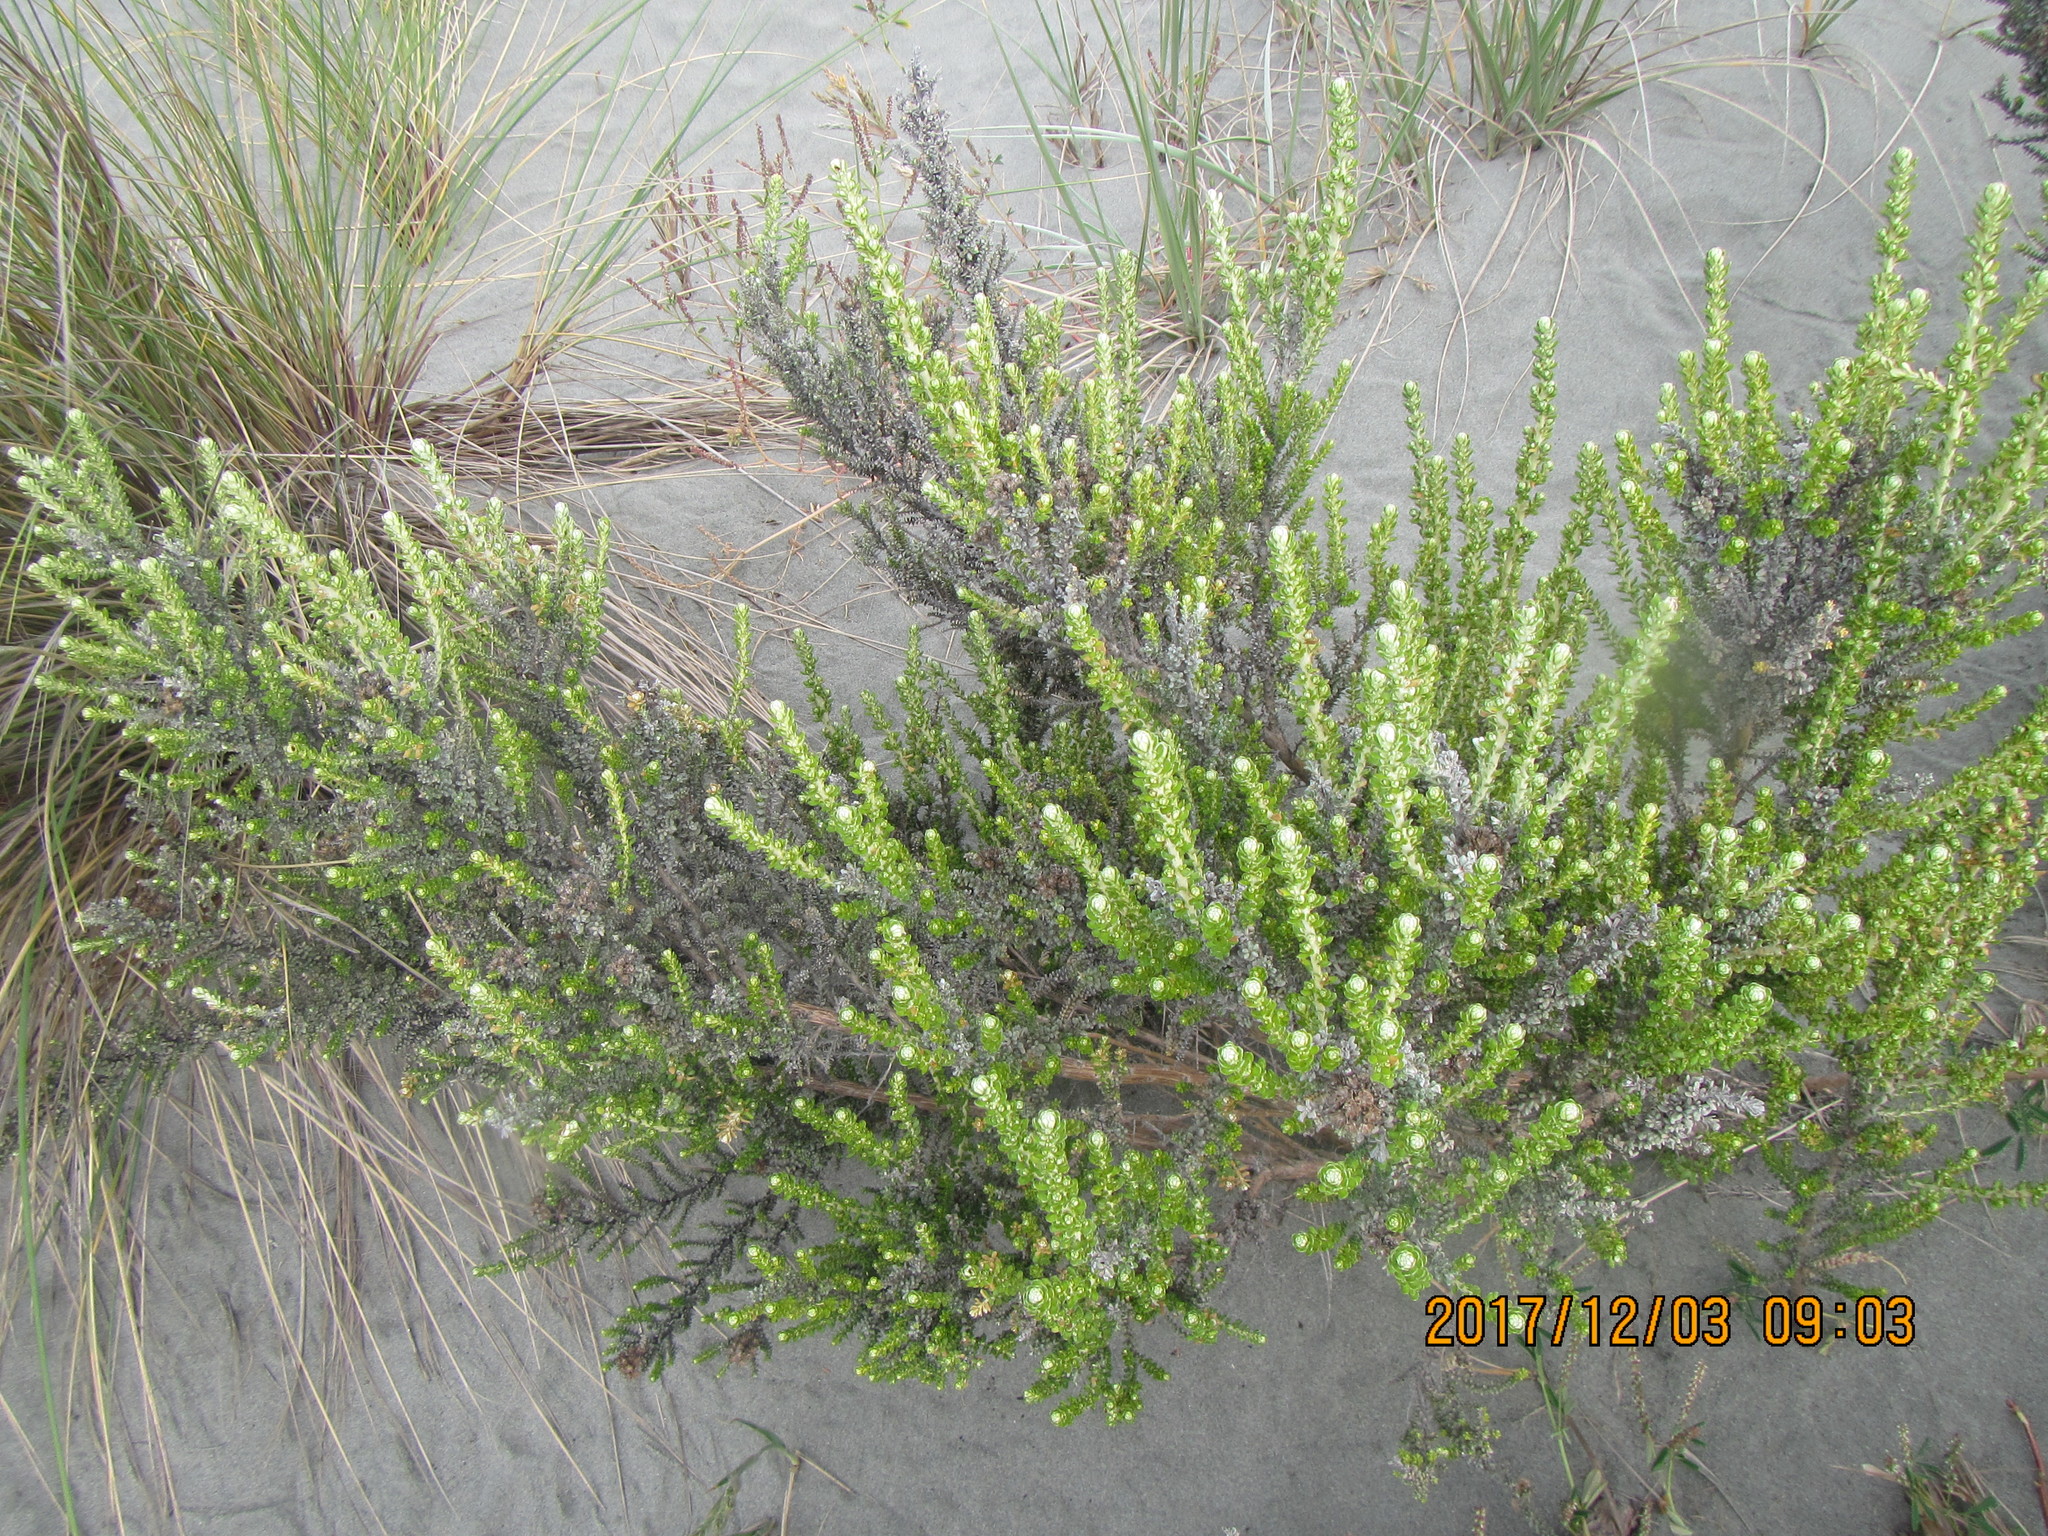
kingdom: Plantae
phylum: Tracheophyta
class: Magnoliopsida
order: Asterales
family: Asteraceae
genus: Ozothamnus
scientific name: Ozothamnus leptophyllus
